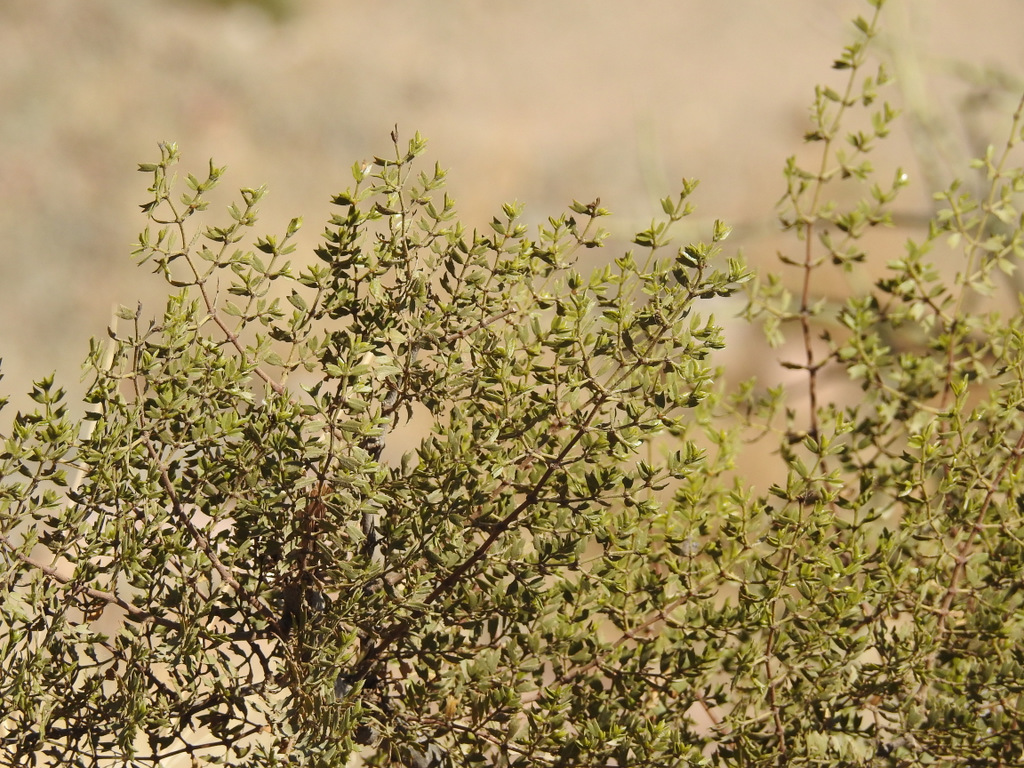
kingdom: Plantae
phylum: Tracheophyta
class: Magnoliopsida
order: Zygophyllales
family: Zygophyllaceae
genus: Larrea
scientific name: Larrea cuneifolia
